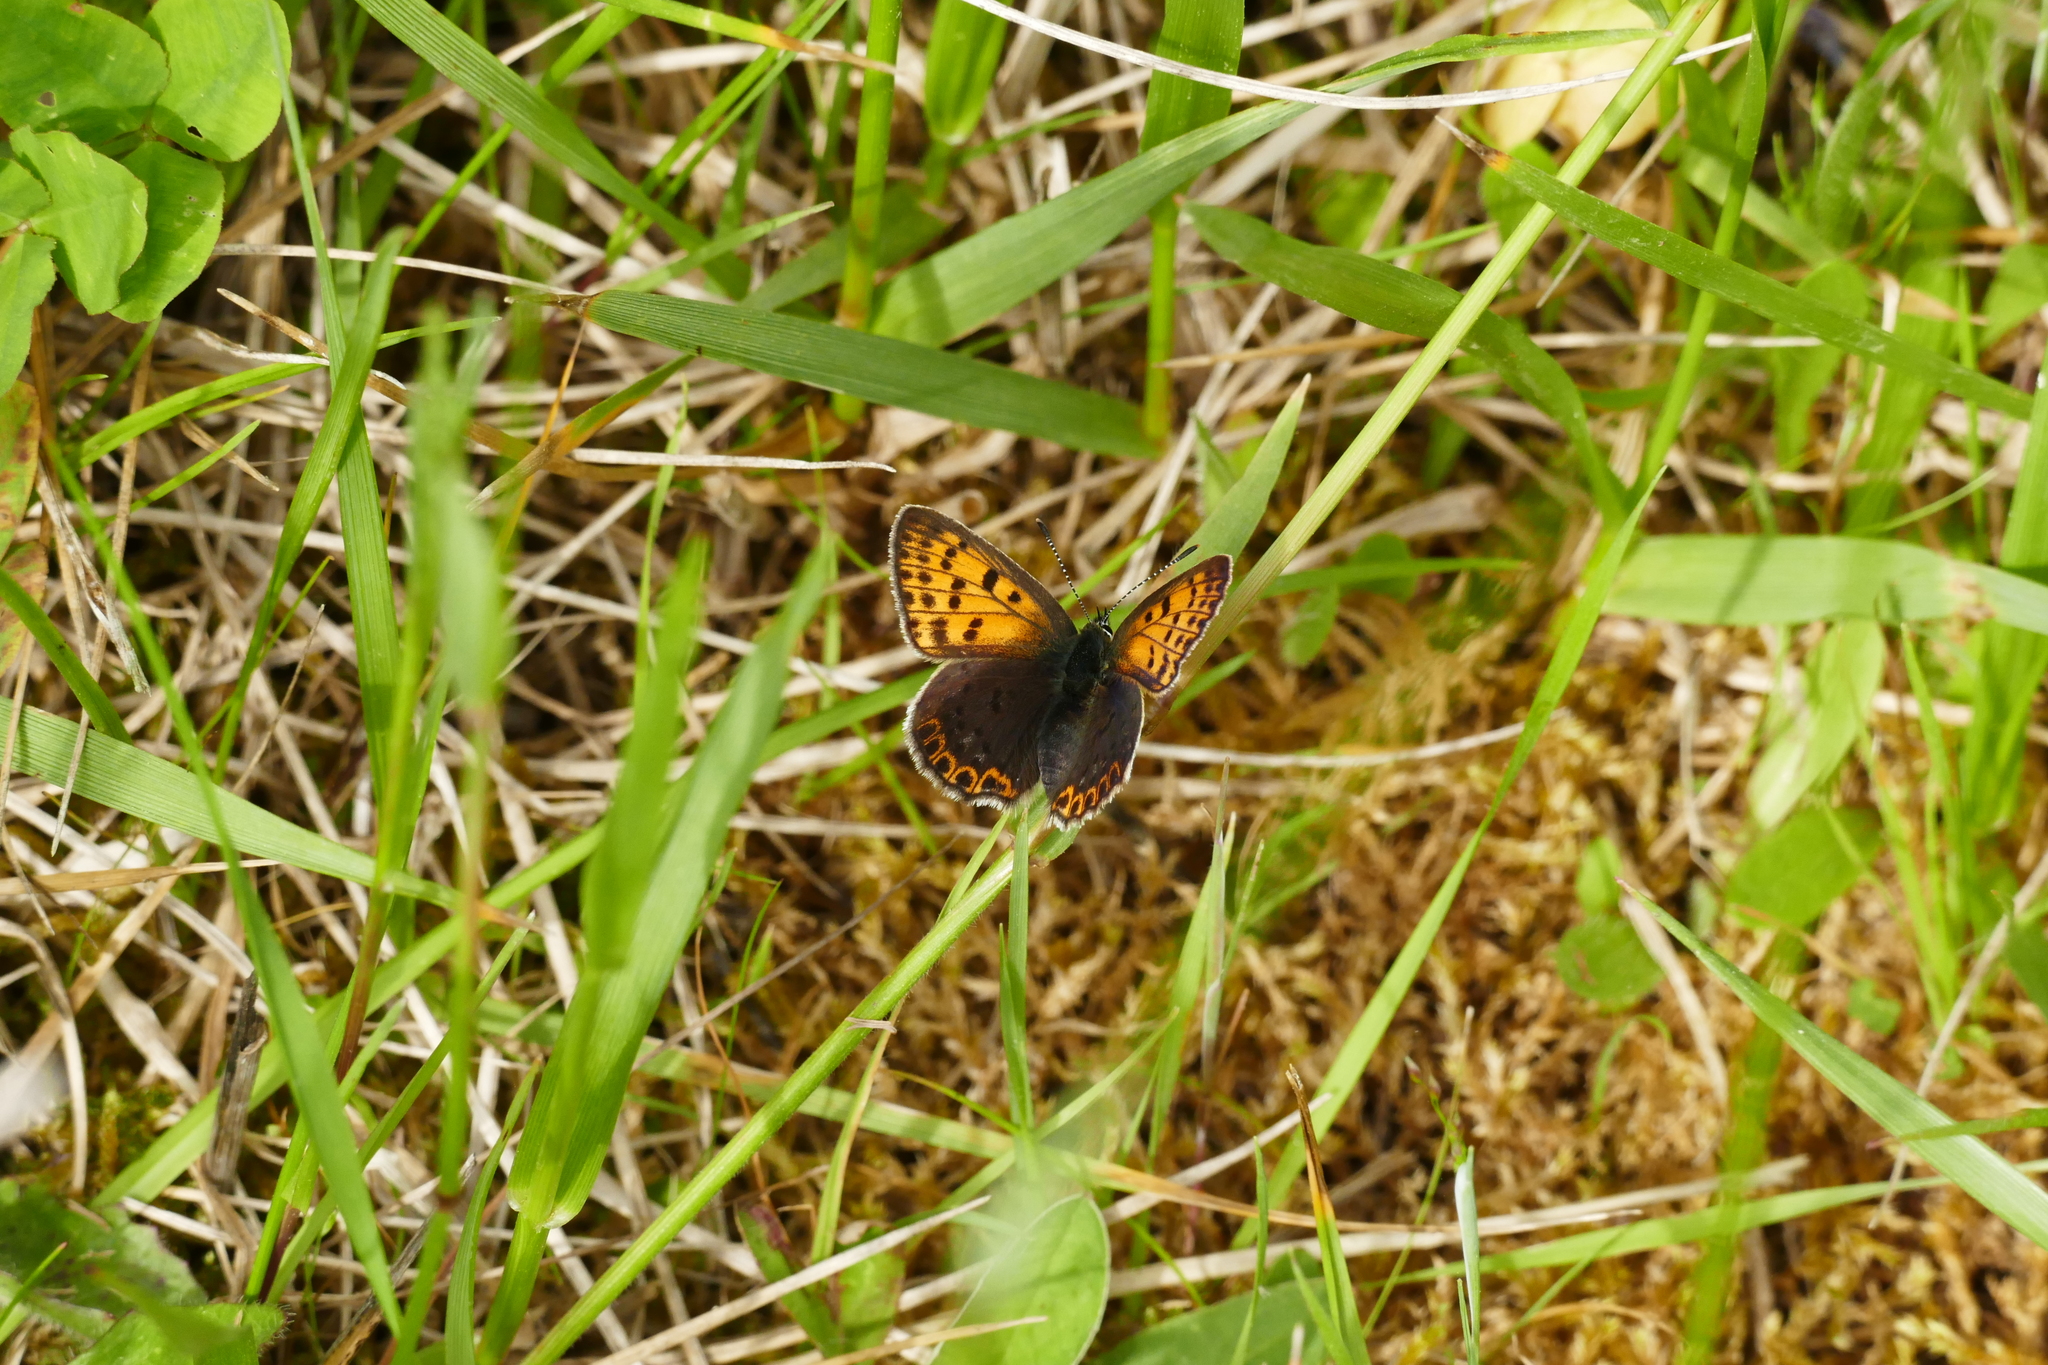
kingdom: Animalia
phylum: Arthropoda
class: Insecta
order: Lepidoptera
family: Lycaenidae
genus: Loweia
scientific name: Loweia tityrus
